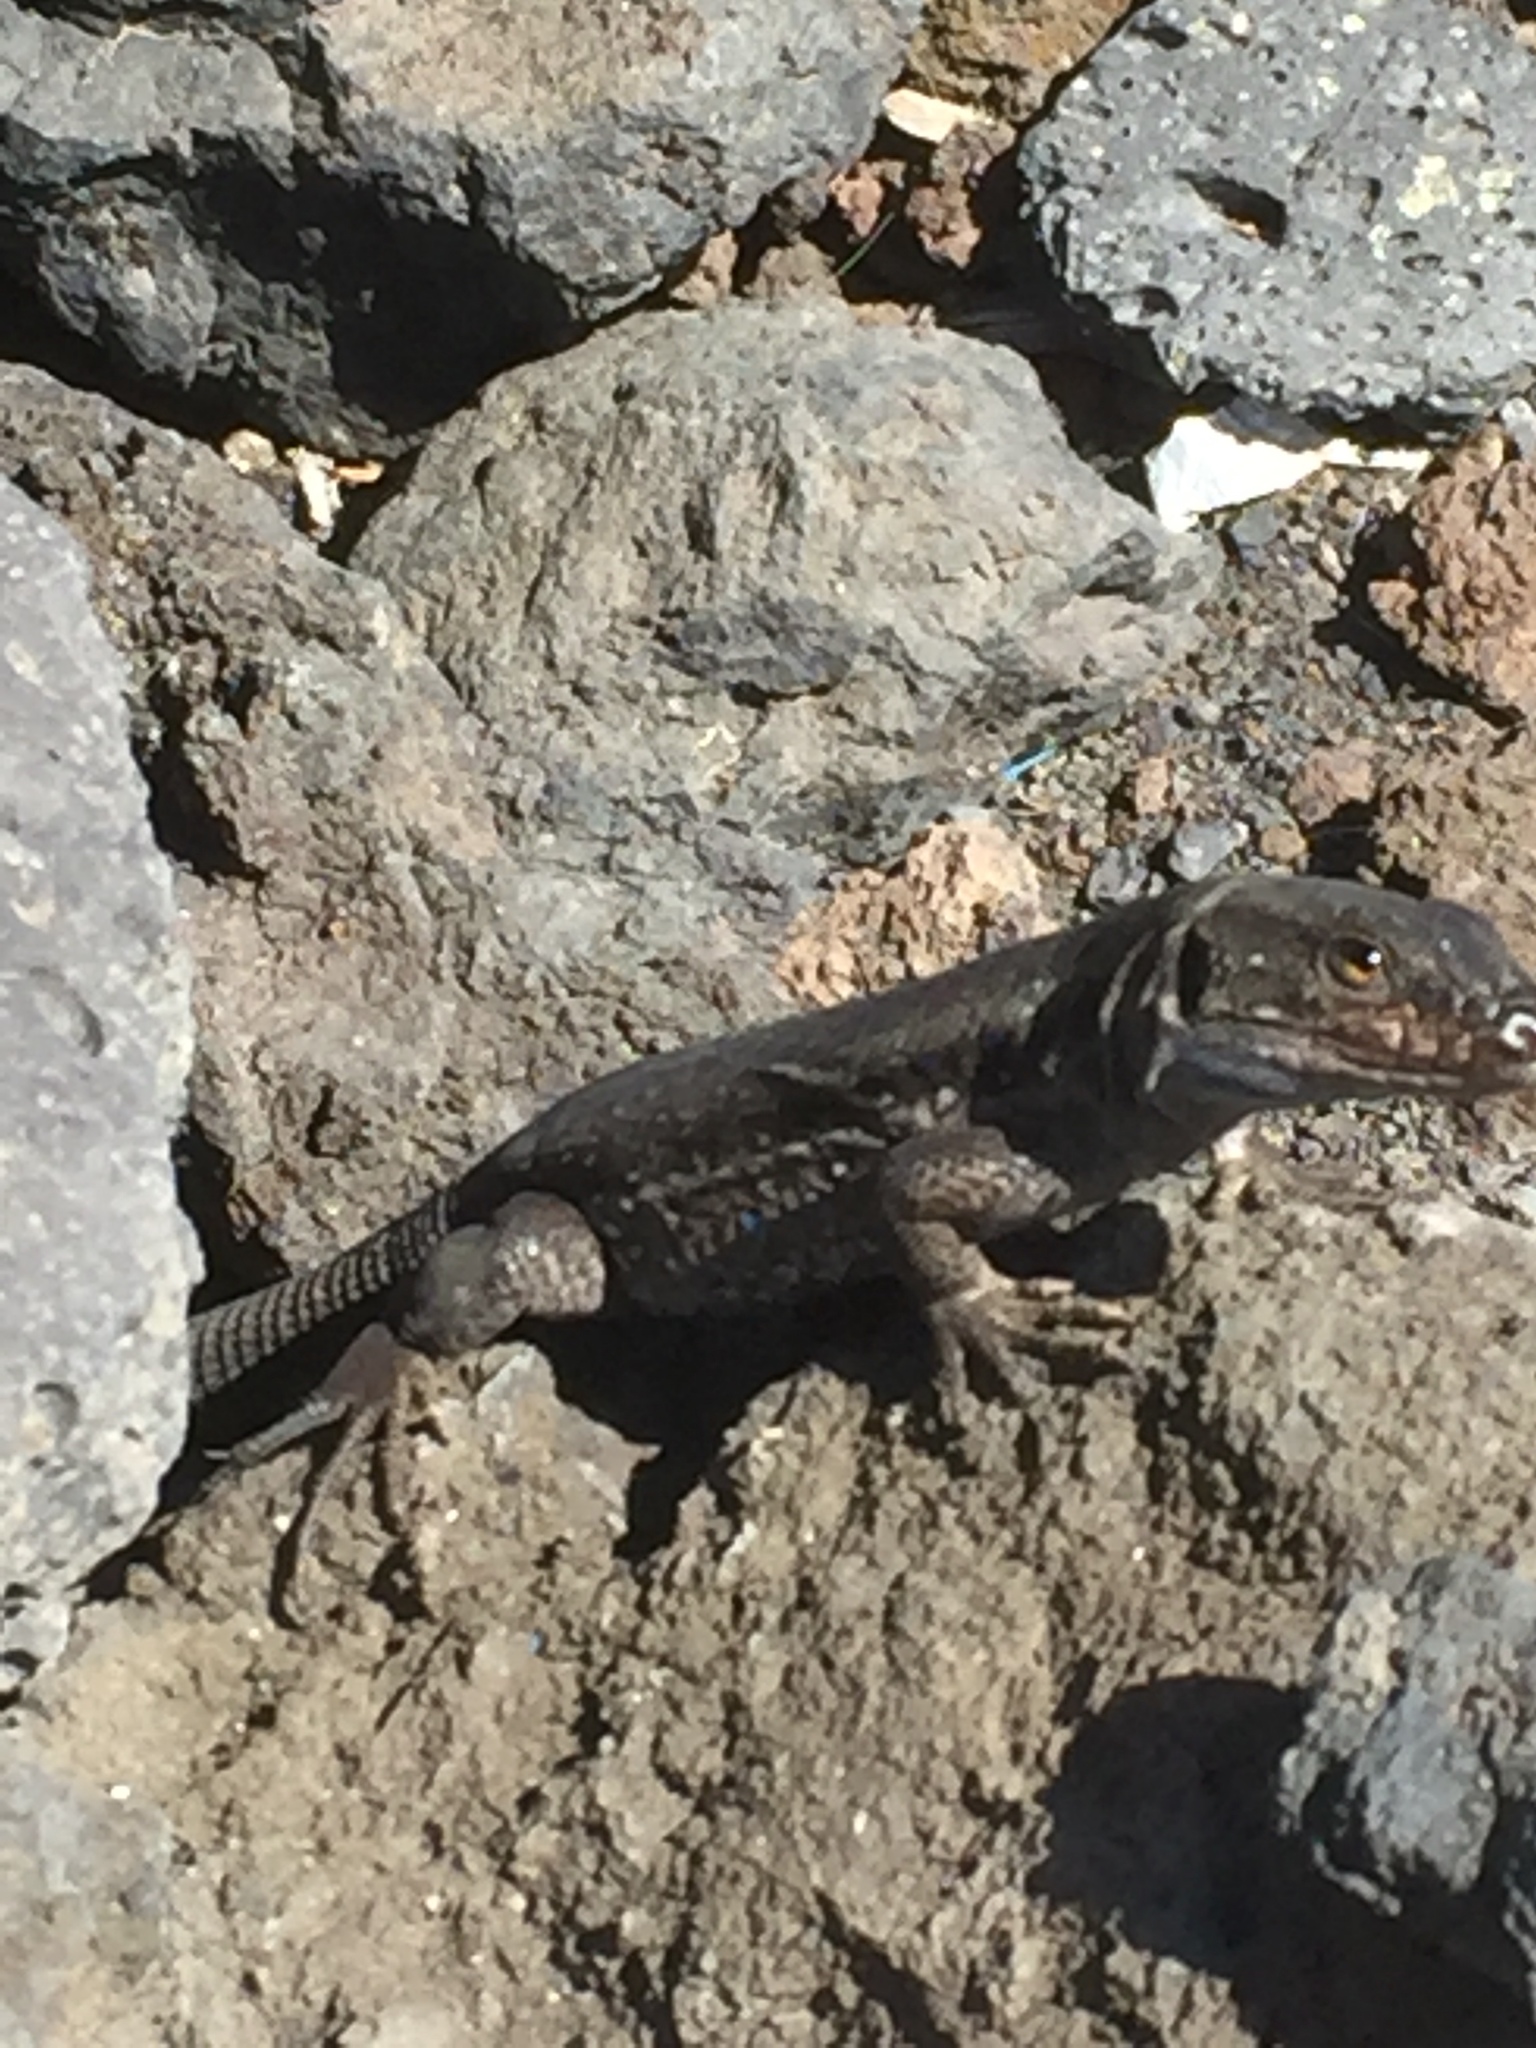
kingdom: Animalia
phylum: Chordata
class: Squamata
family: Lacertidae
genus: Gallotia
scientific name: Gallotia galloti
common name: Gallot's lizard
